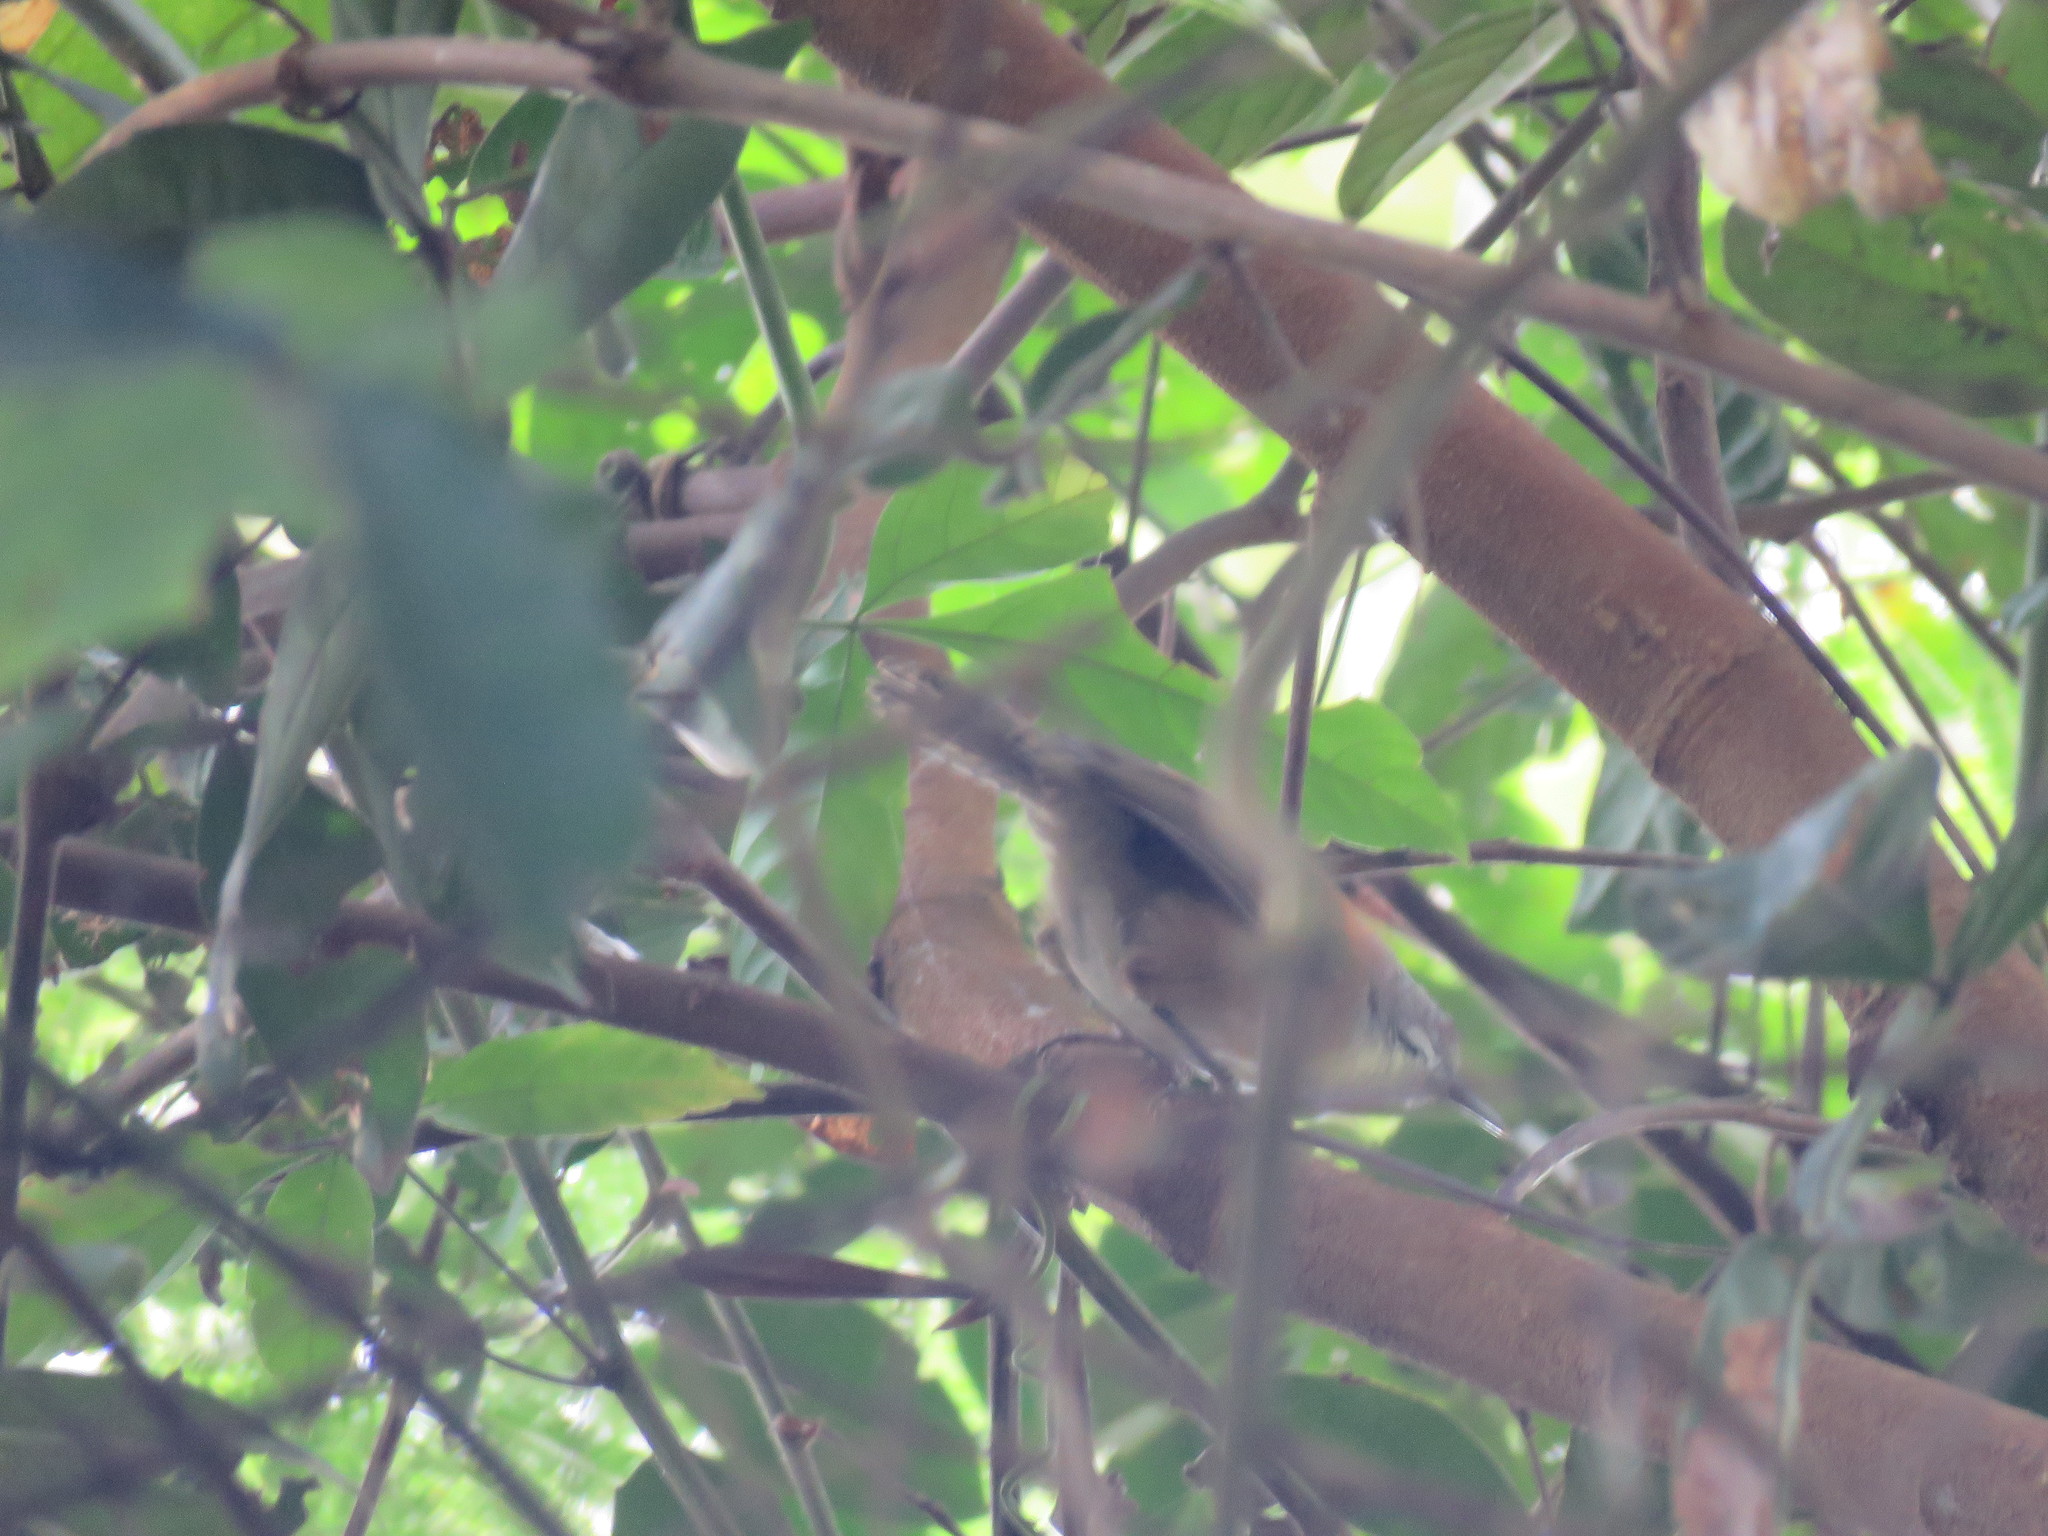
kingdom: Animalia
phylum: Chordata
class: Aves
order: Passeriformes
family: Troglodytidae
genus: Pheugopedius
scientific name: Pheugopedius genibarbis
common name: Moustached wren
